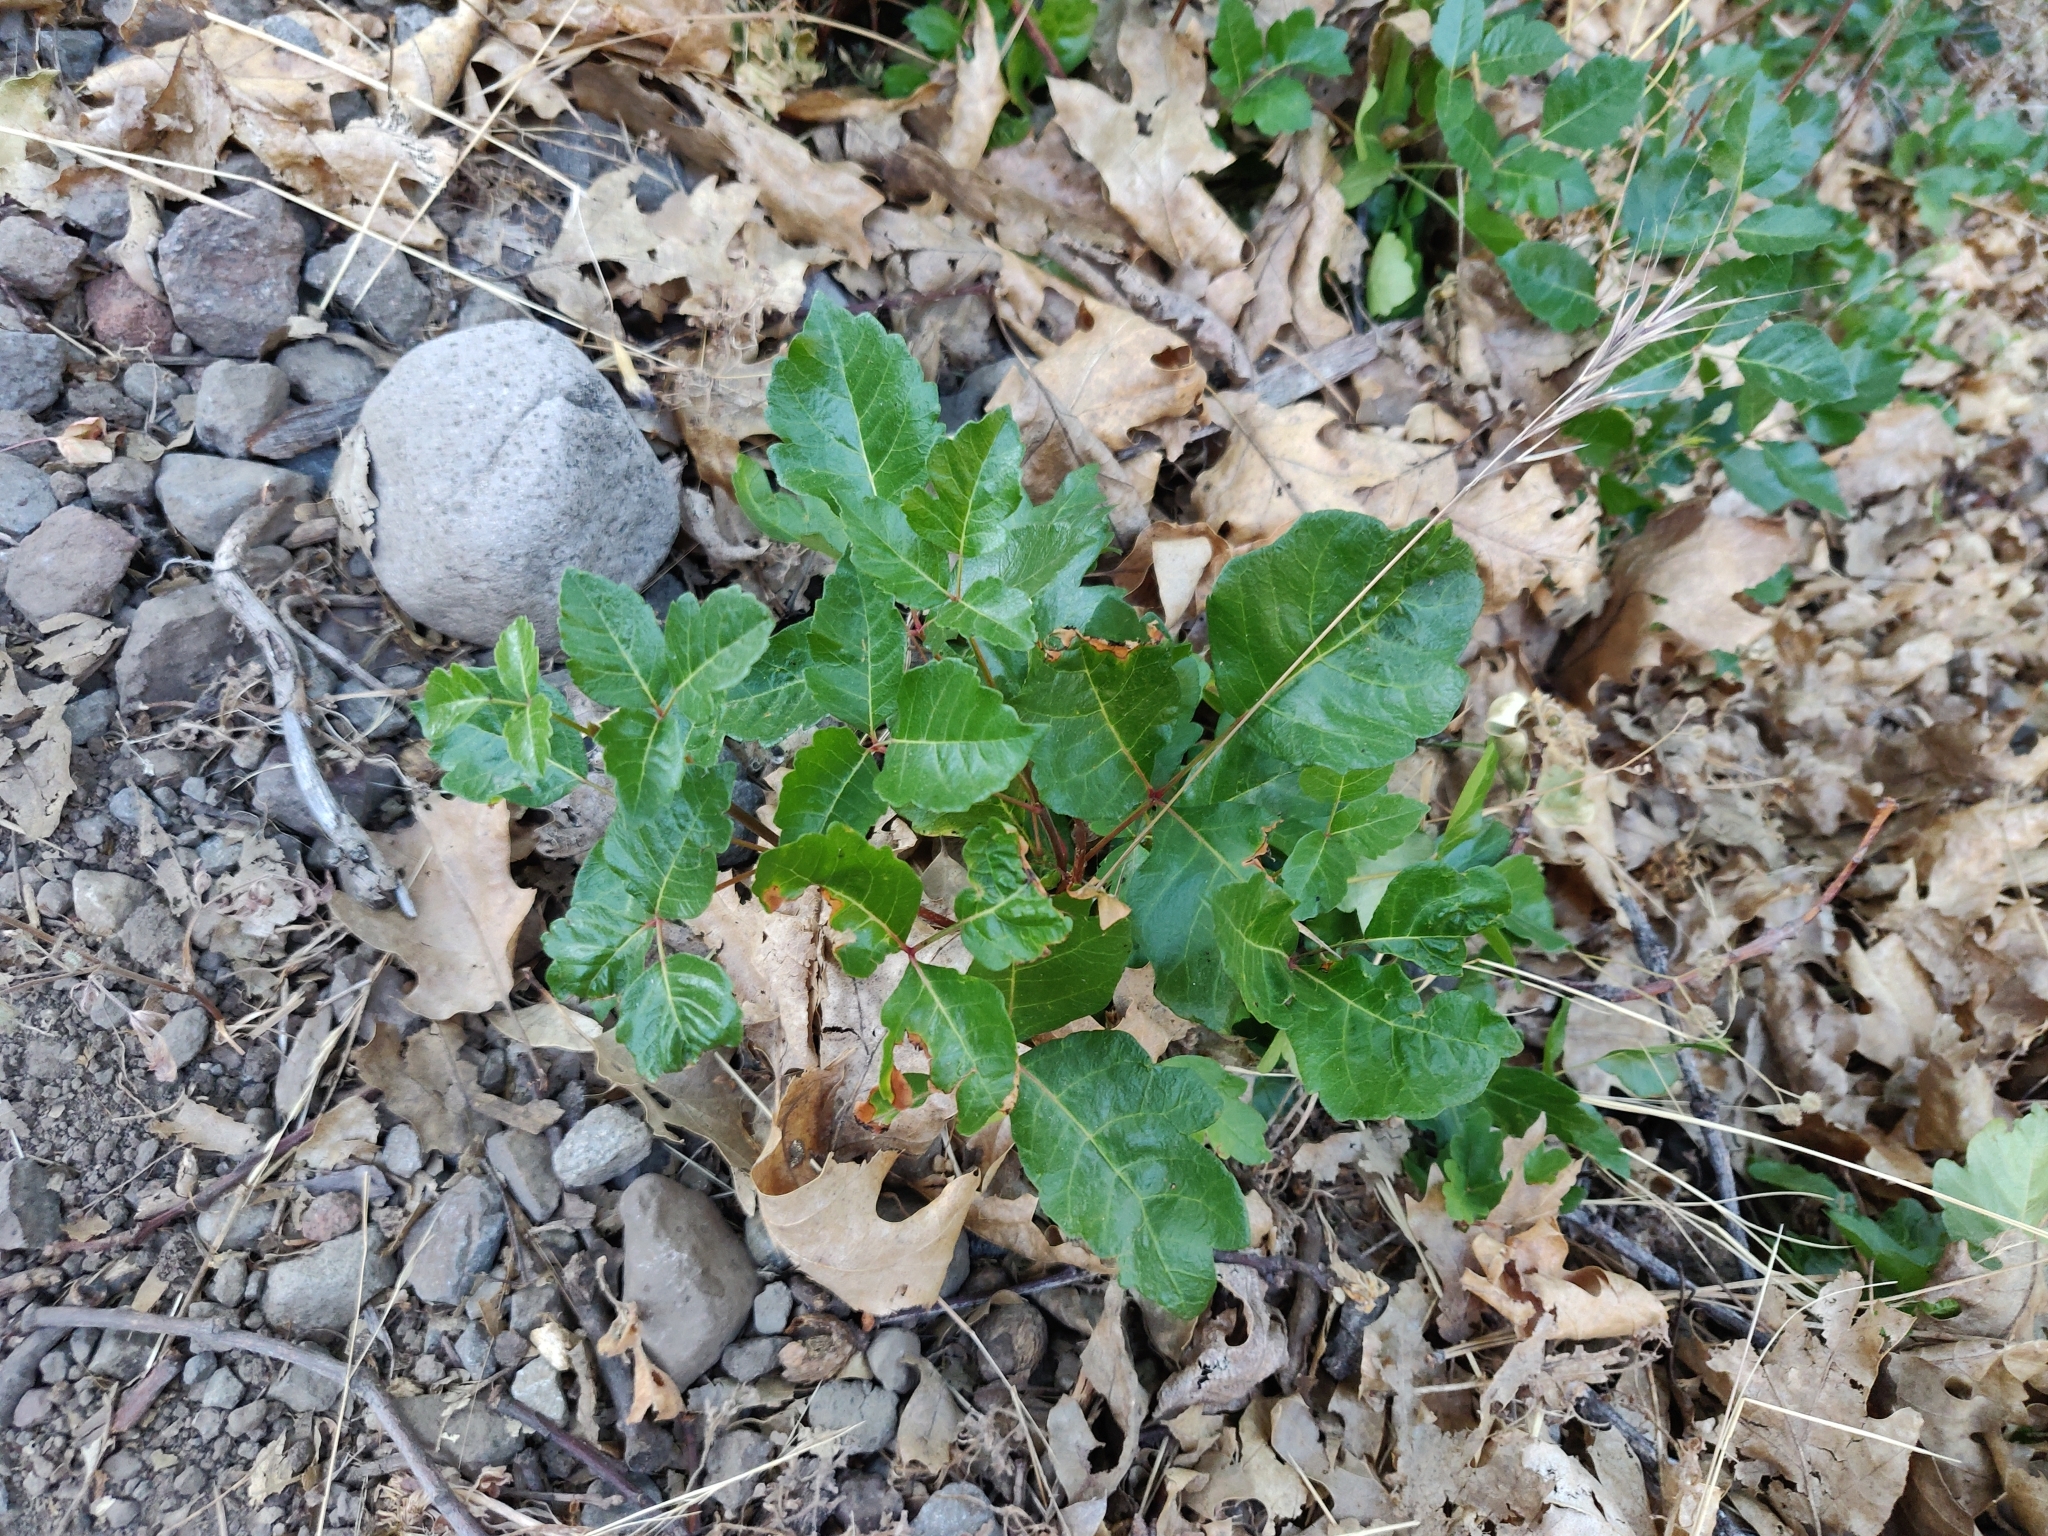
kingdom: Plantae
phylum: Tracheophyta
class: Magnoliopsida
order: Sapindales
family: Anacardiaceae
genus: Toxicodendron
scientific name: Toxicodendron diversilobum
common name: Pacific poison-oak
